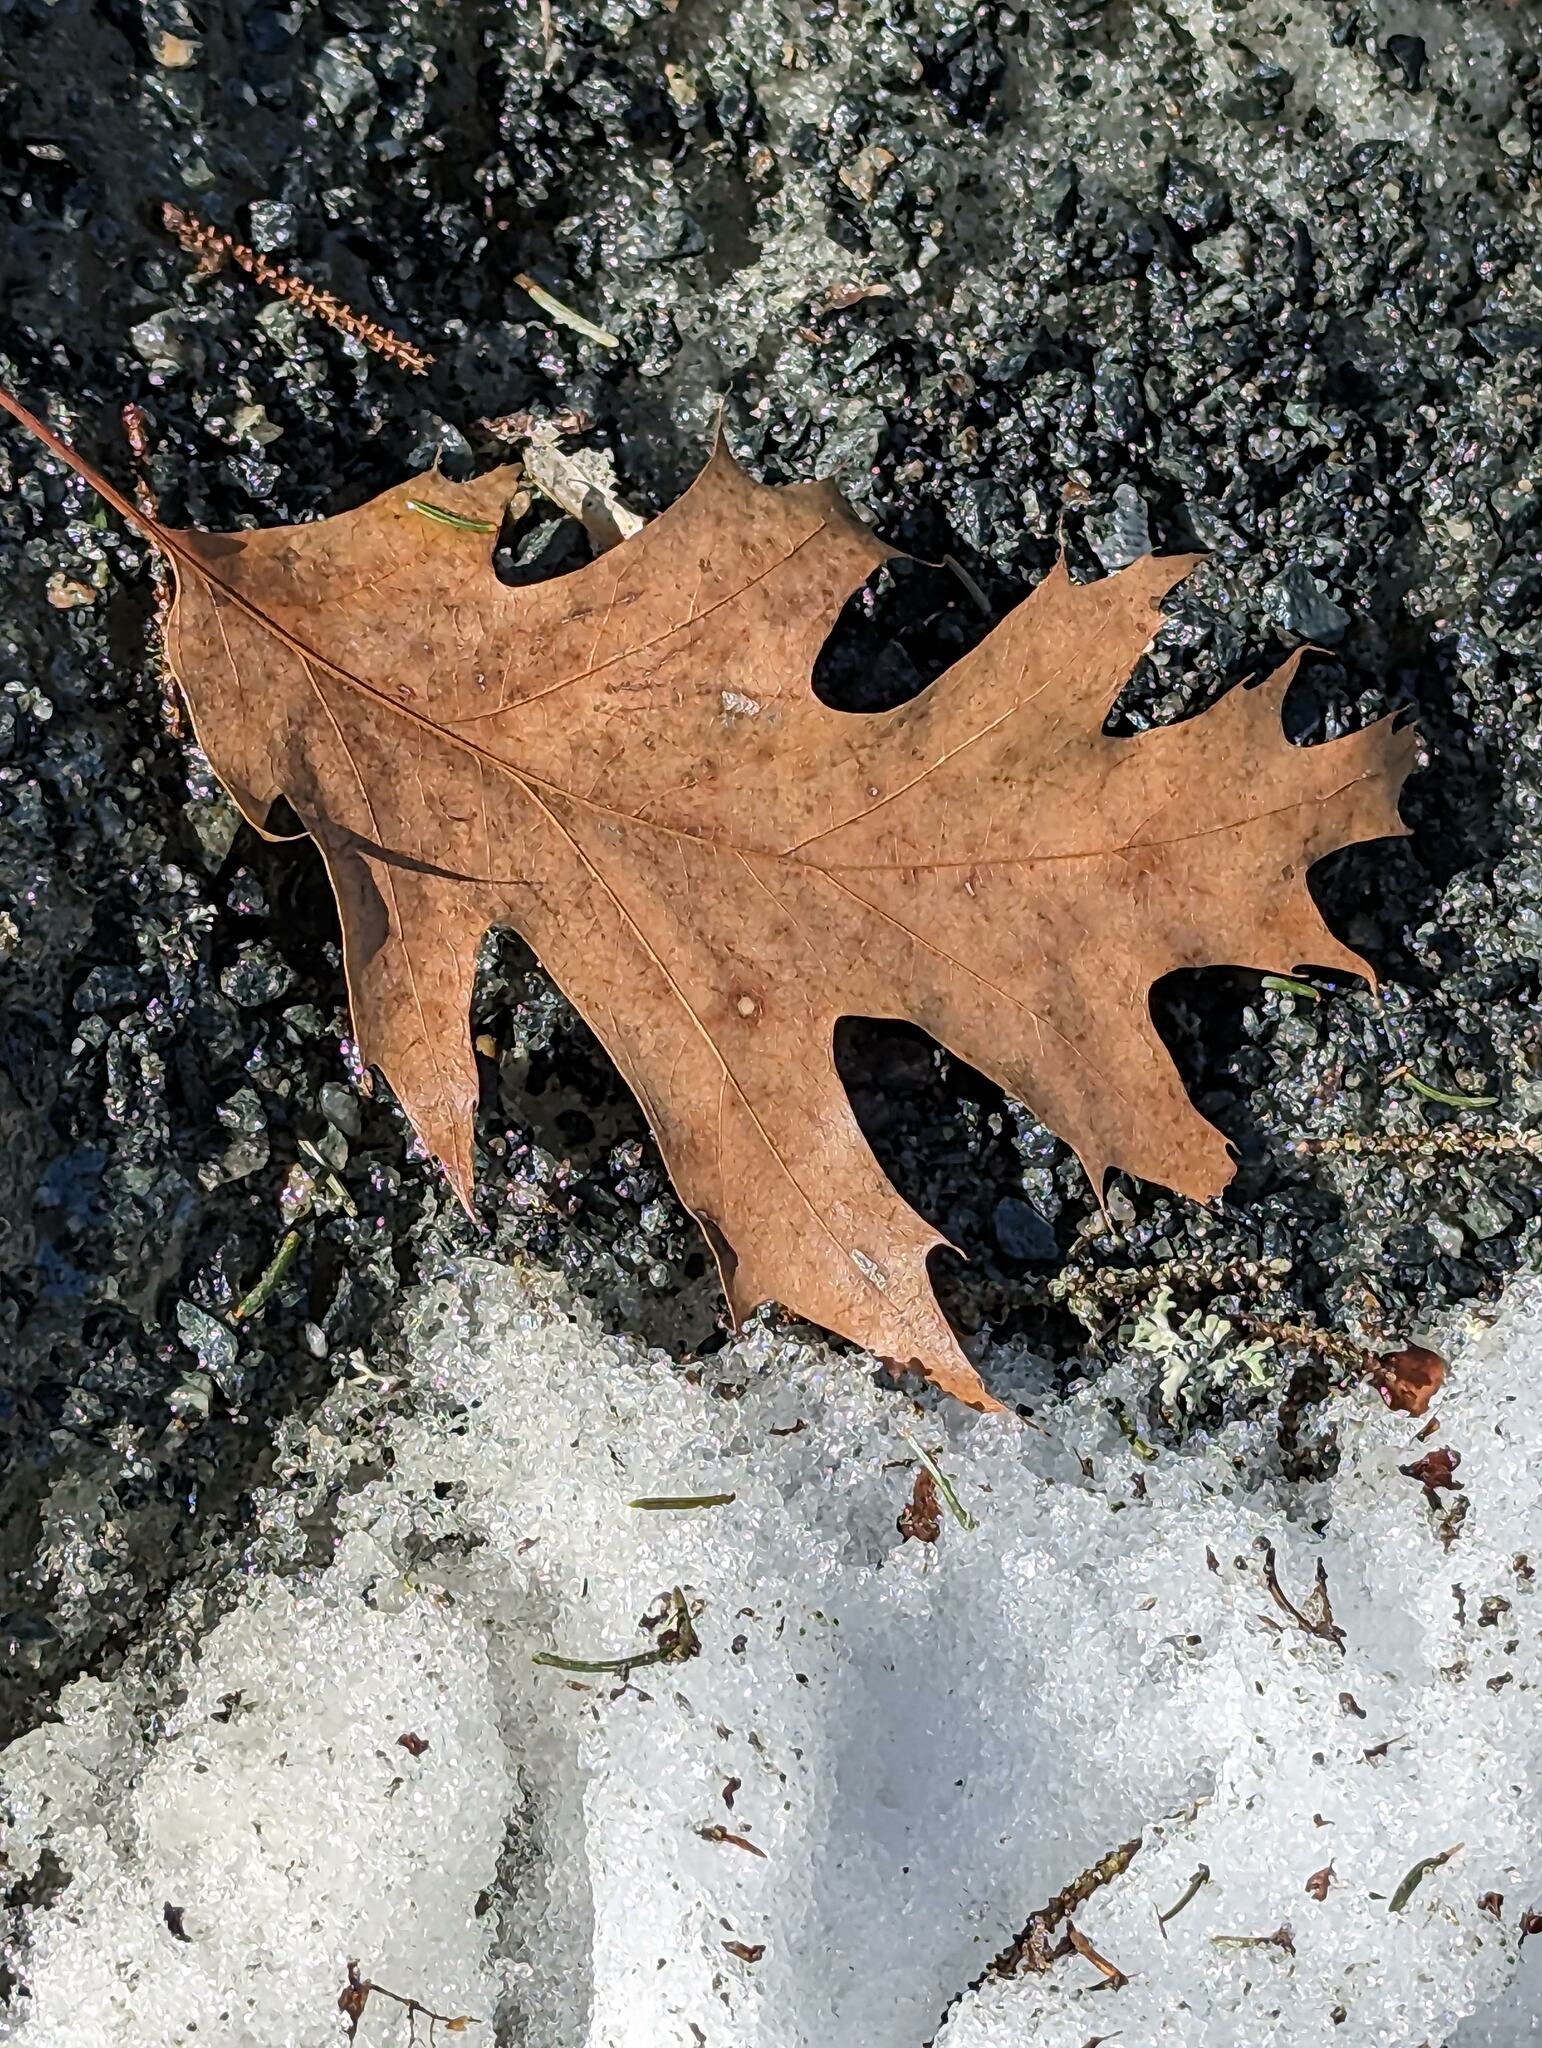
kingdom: Plantae
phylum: Tracheophyta
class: Magnoliopsida
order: Fagales
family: Fagaceae
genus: Quercus
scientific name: Quercus rubra
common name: Red oak
